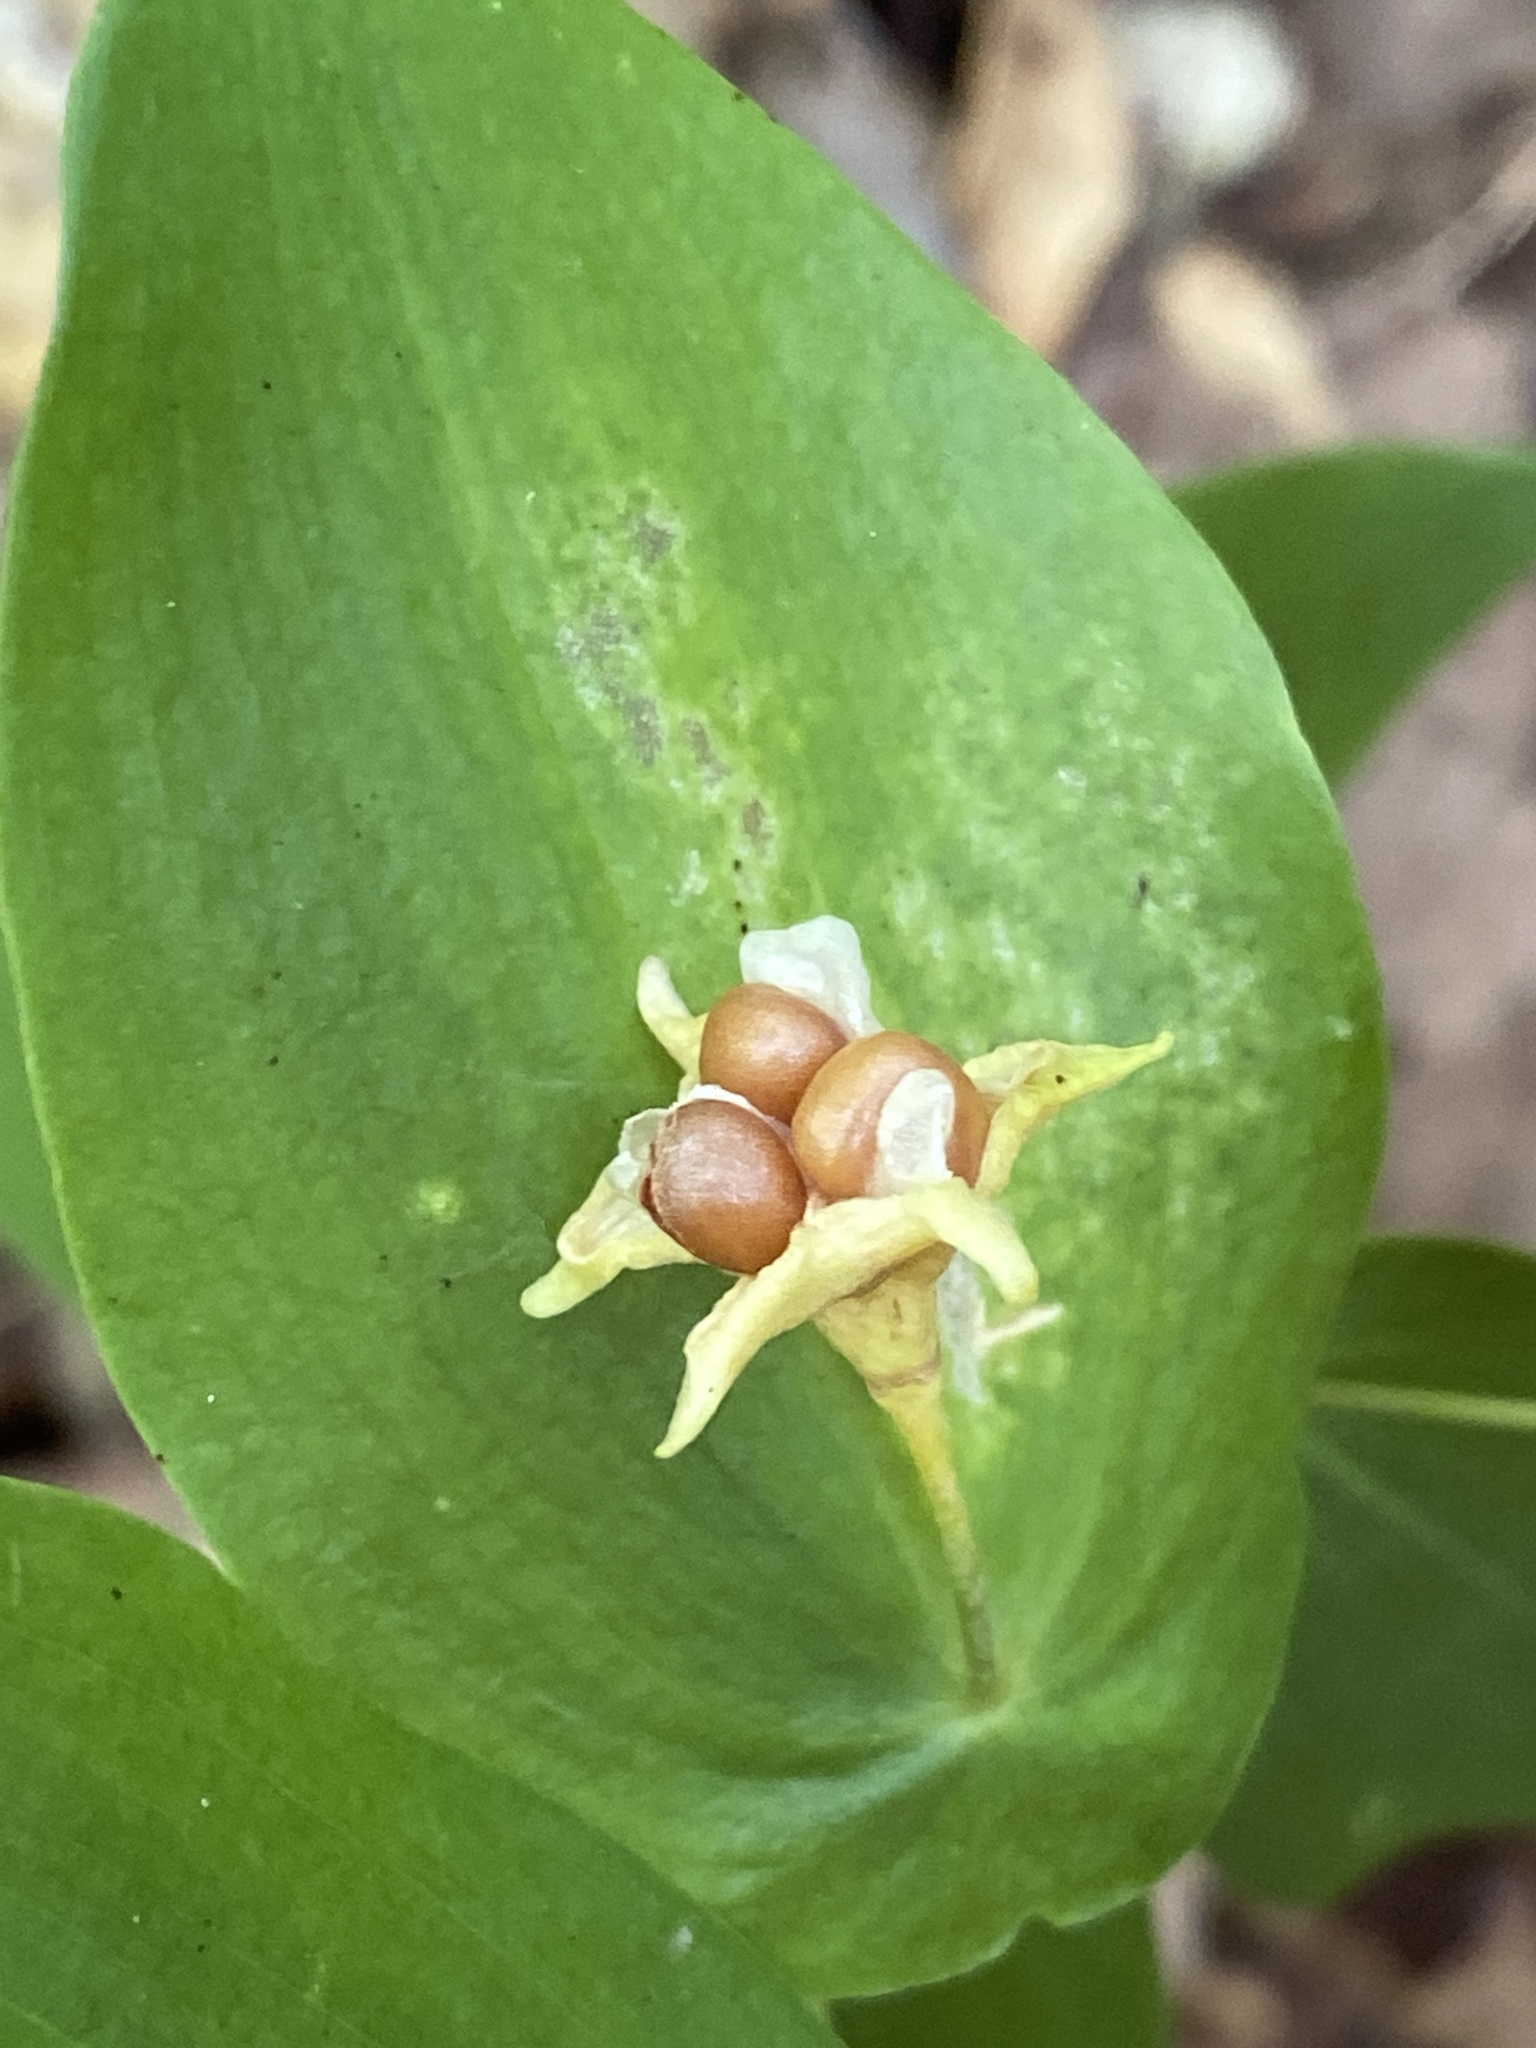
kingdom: Plantae
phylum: Tracheophyta
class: Liliopsida
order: Liliales
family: Colchicaceae
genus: Uvularia
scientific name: Uvularia perfoliata
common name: Perfoliate bellwort
